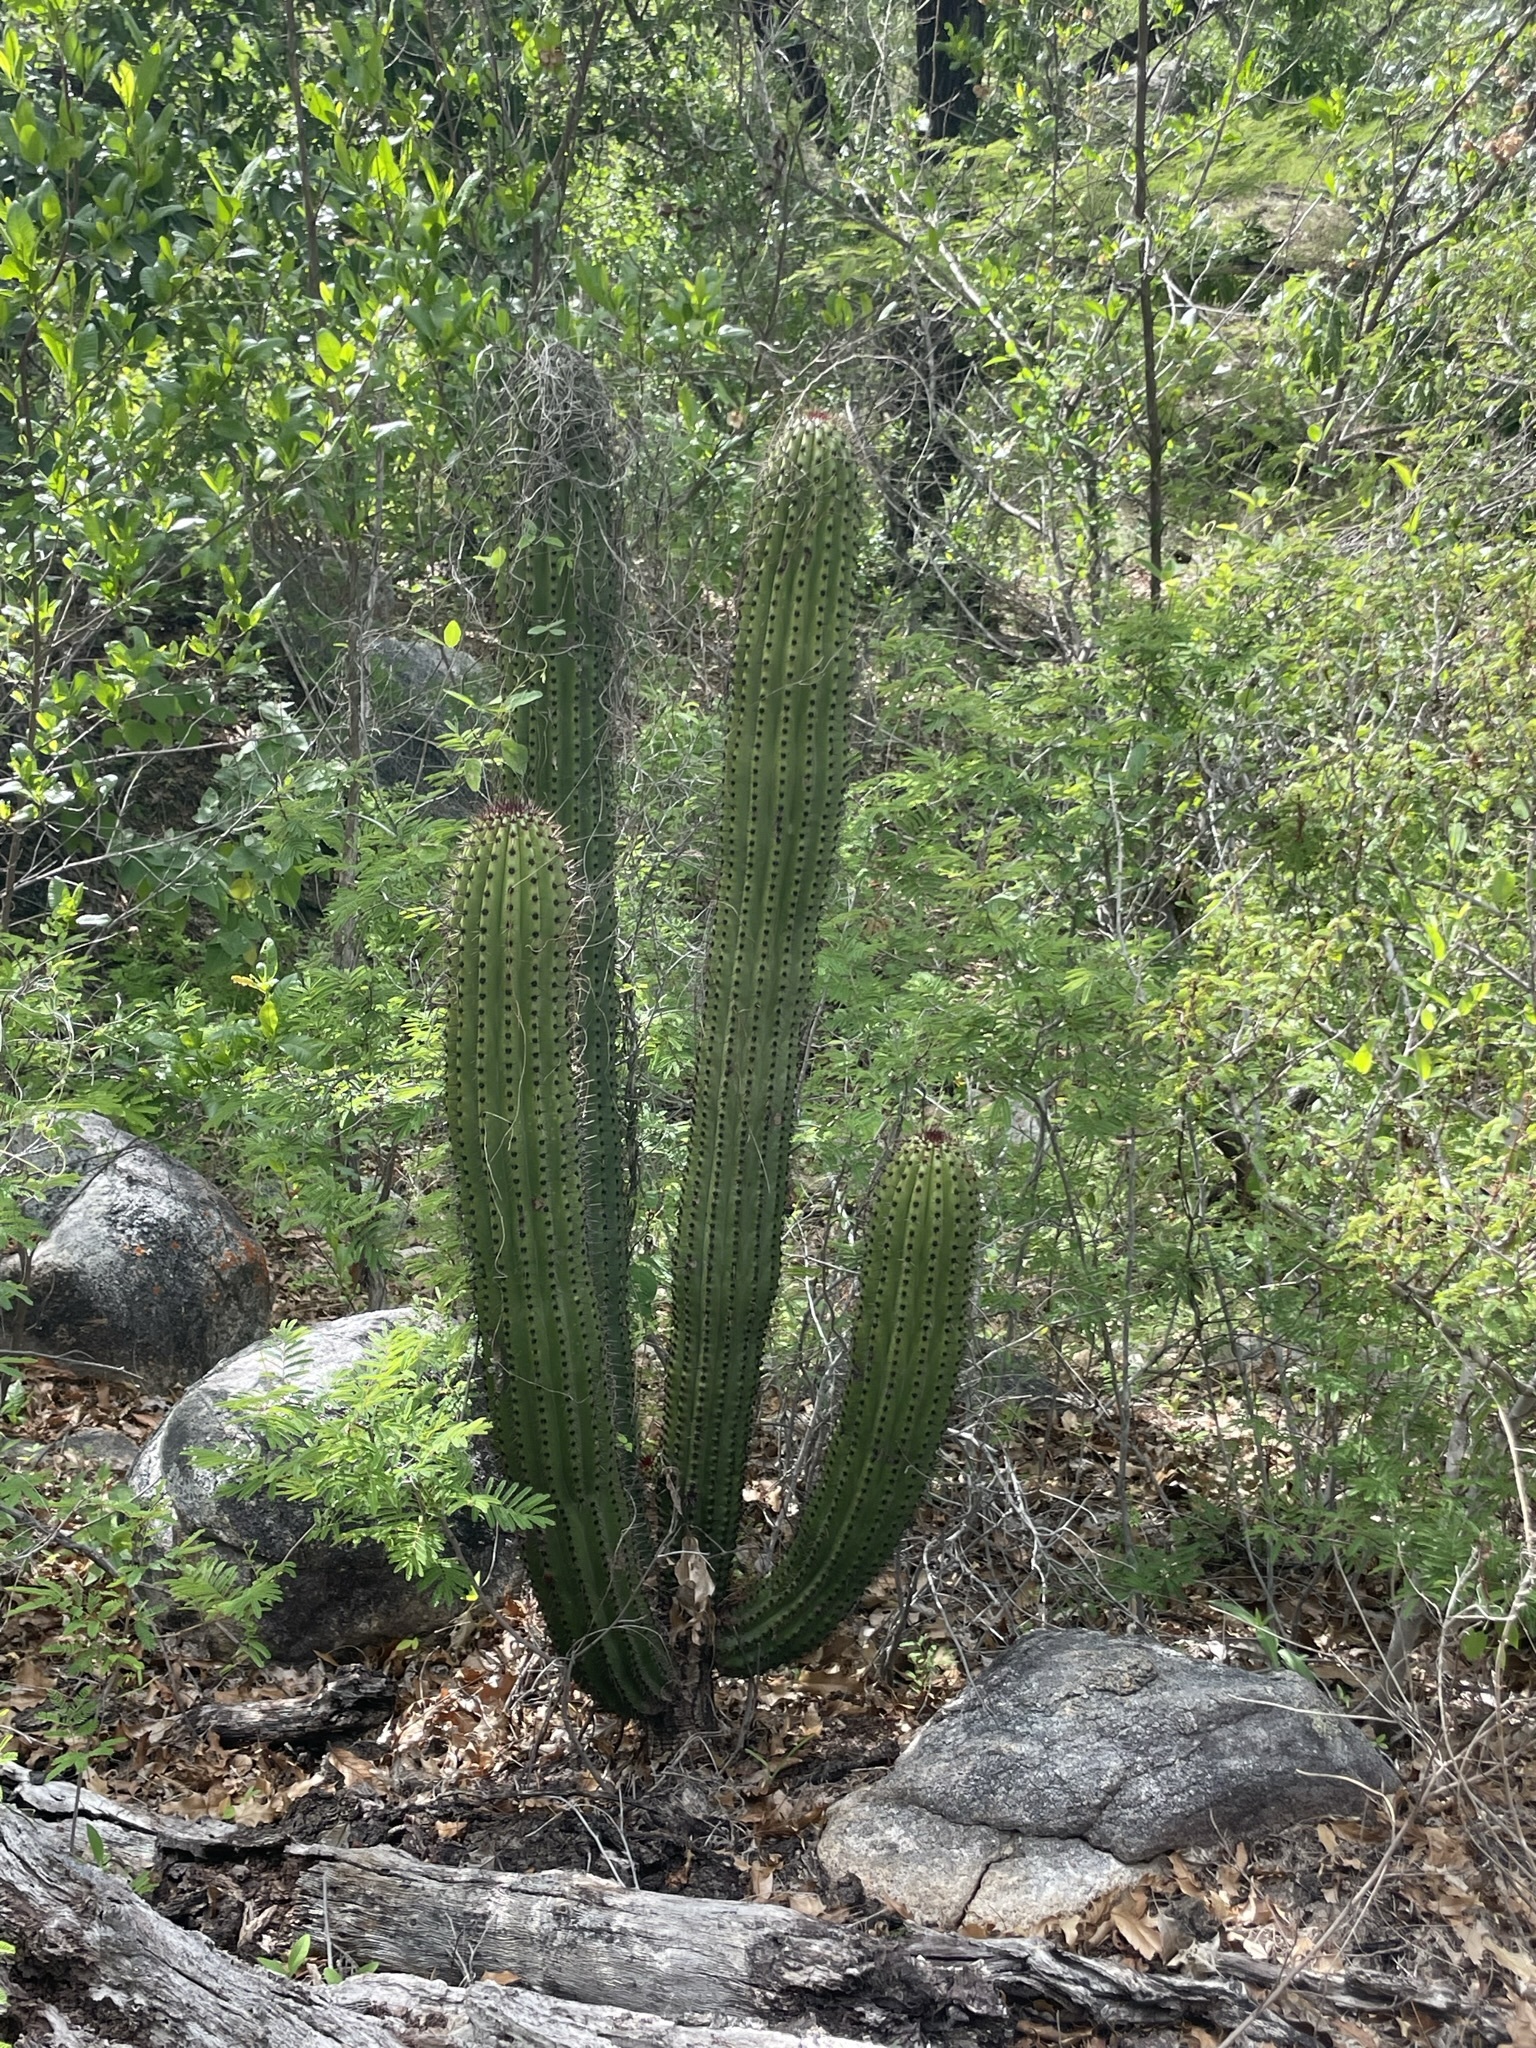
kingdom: Plantae
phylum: Tracheophyta
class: Magnoliopsida
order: Caryophyllales
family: Cactaceae
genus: Stenocereus
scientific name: Stenocereus thurberi
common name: Organ pipe cactus
